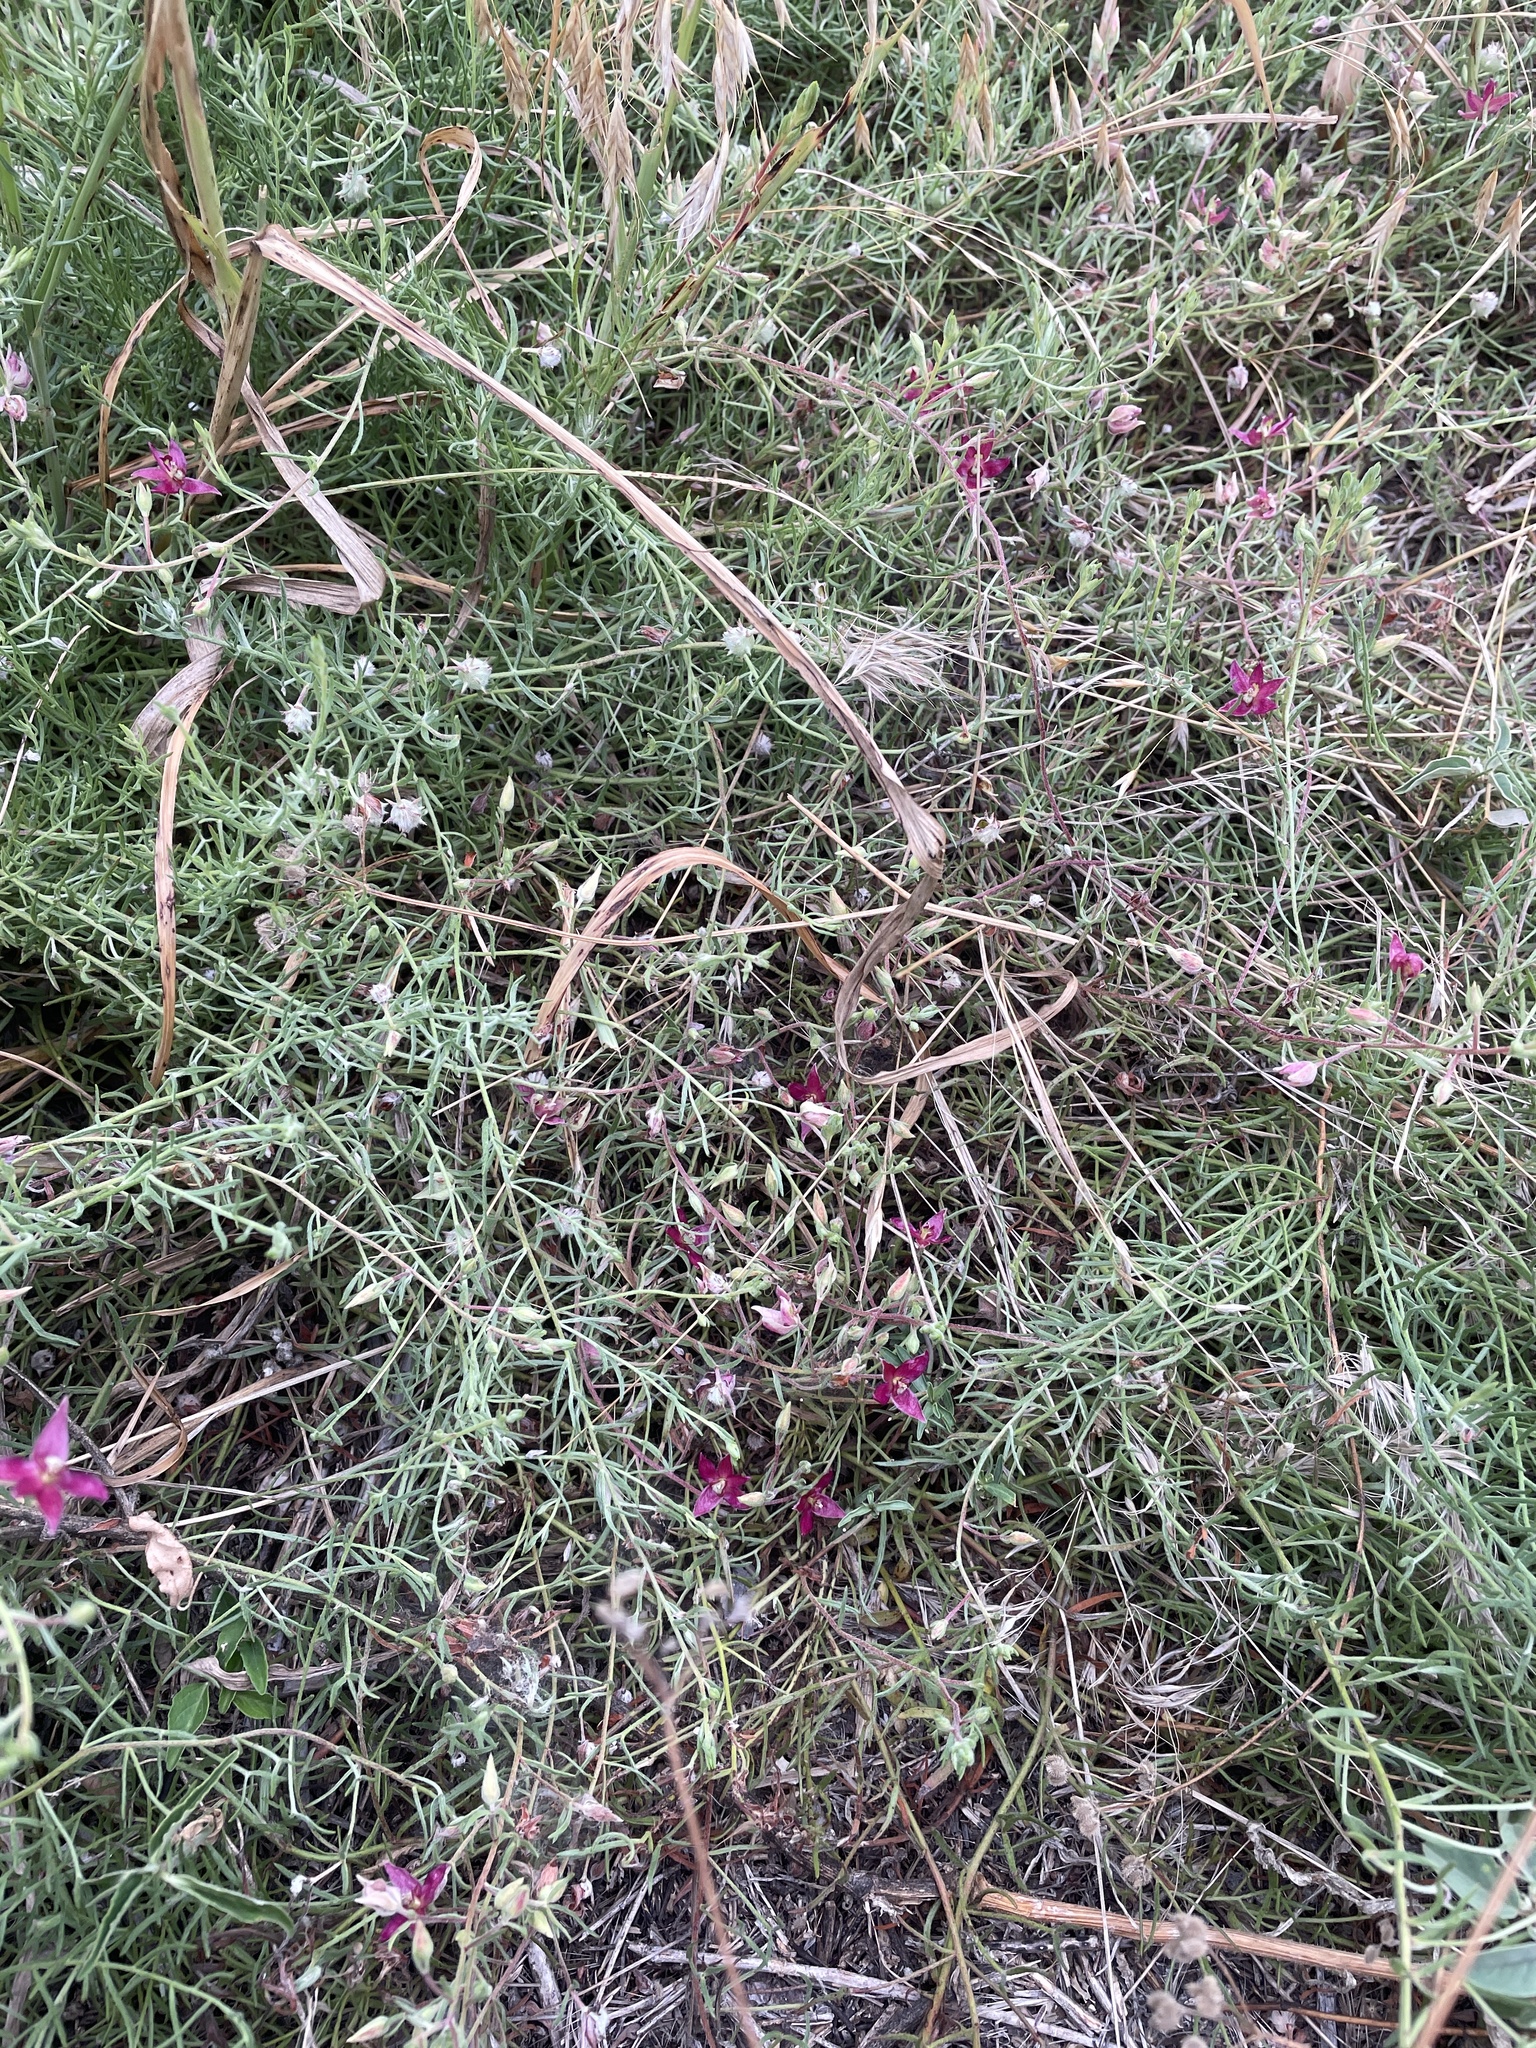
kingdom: Plantae
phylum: Tracheophyta
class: Magnoliopsida
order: Zygophyllales
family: Krameriaceae
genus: Krameria
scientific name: Krameria lanceolata
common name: Ratany
